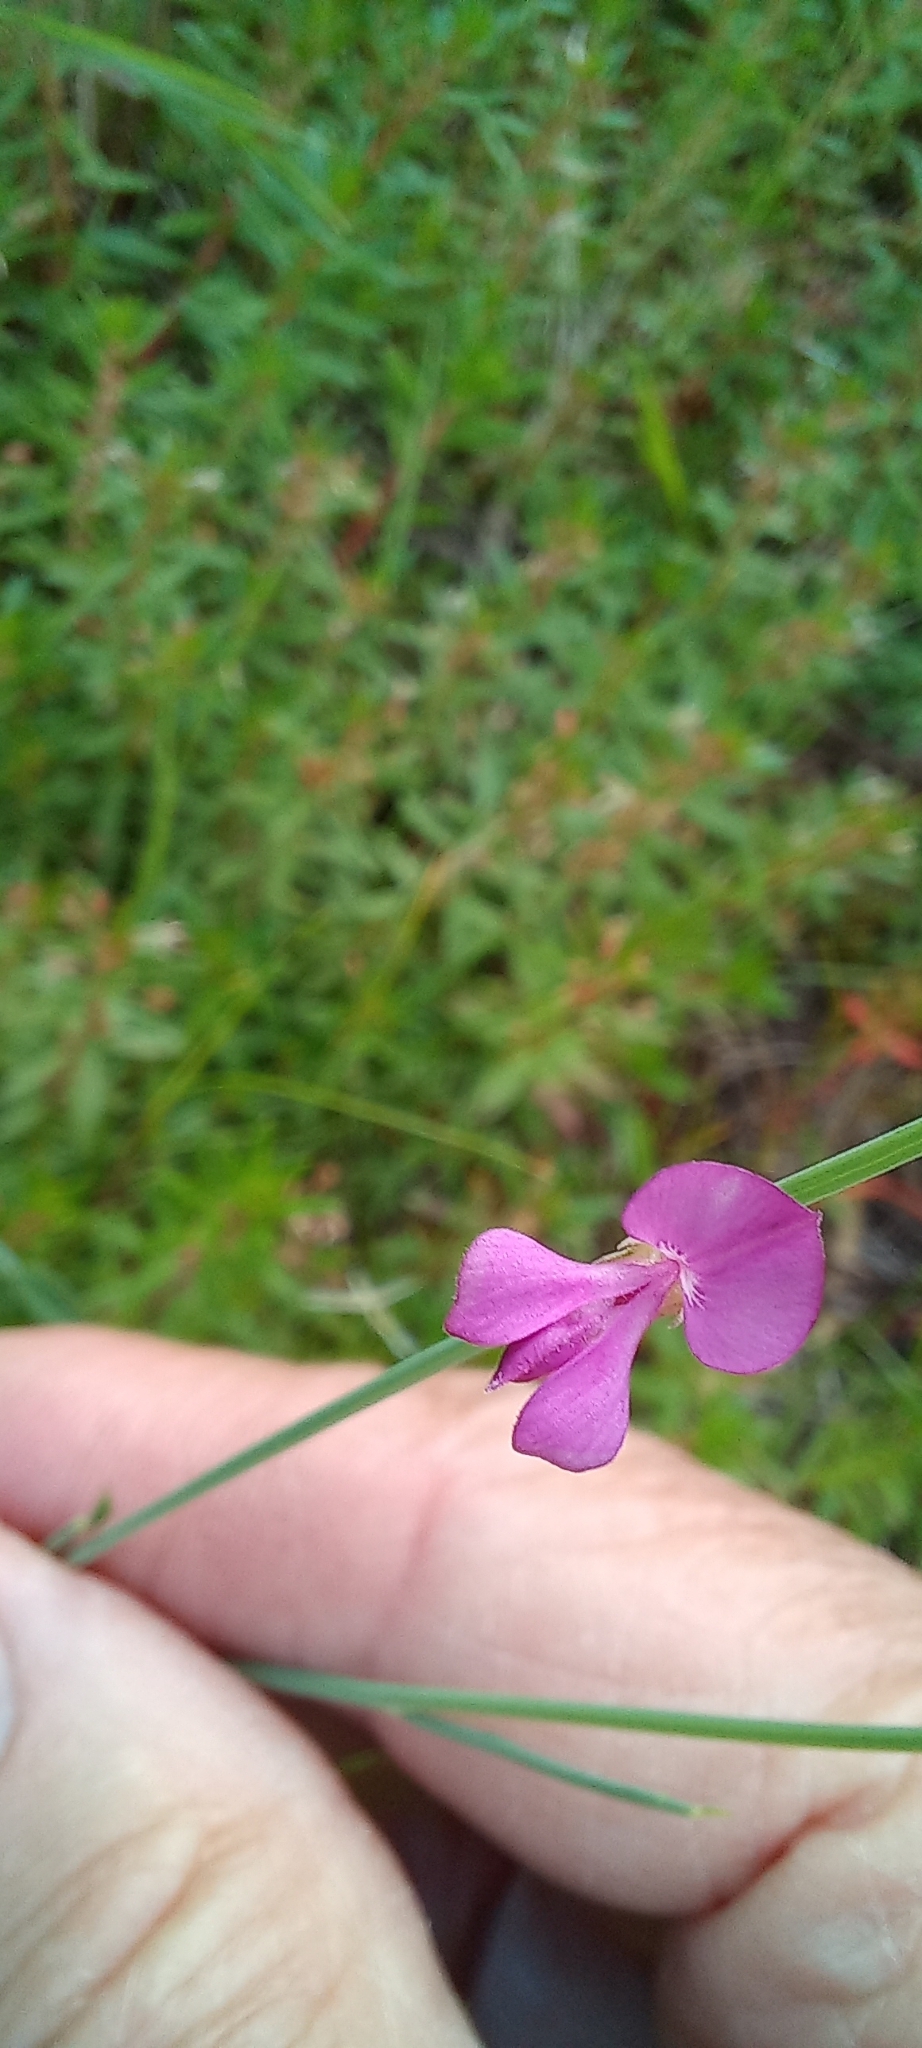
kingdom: Plantae
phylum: Tracheophyta
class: Magnoliopsida
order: Fabales
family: Fabaceae
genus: Indigofera
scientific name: Indigofera ionii
